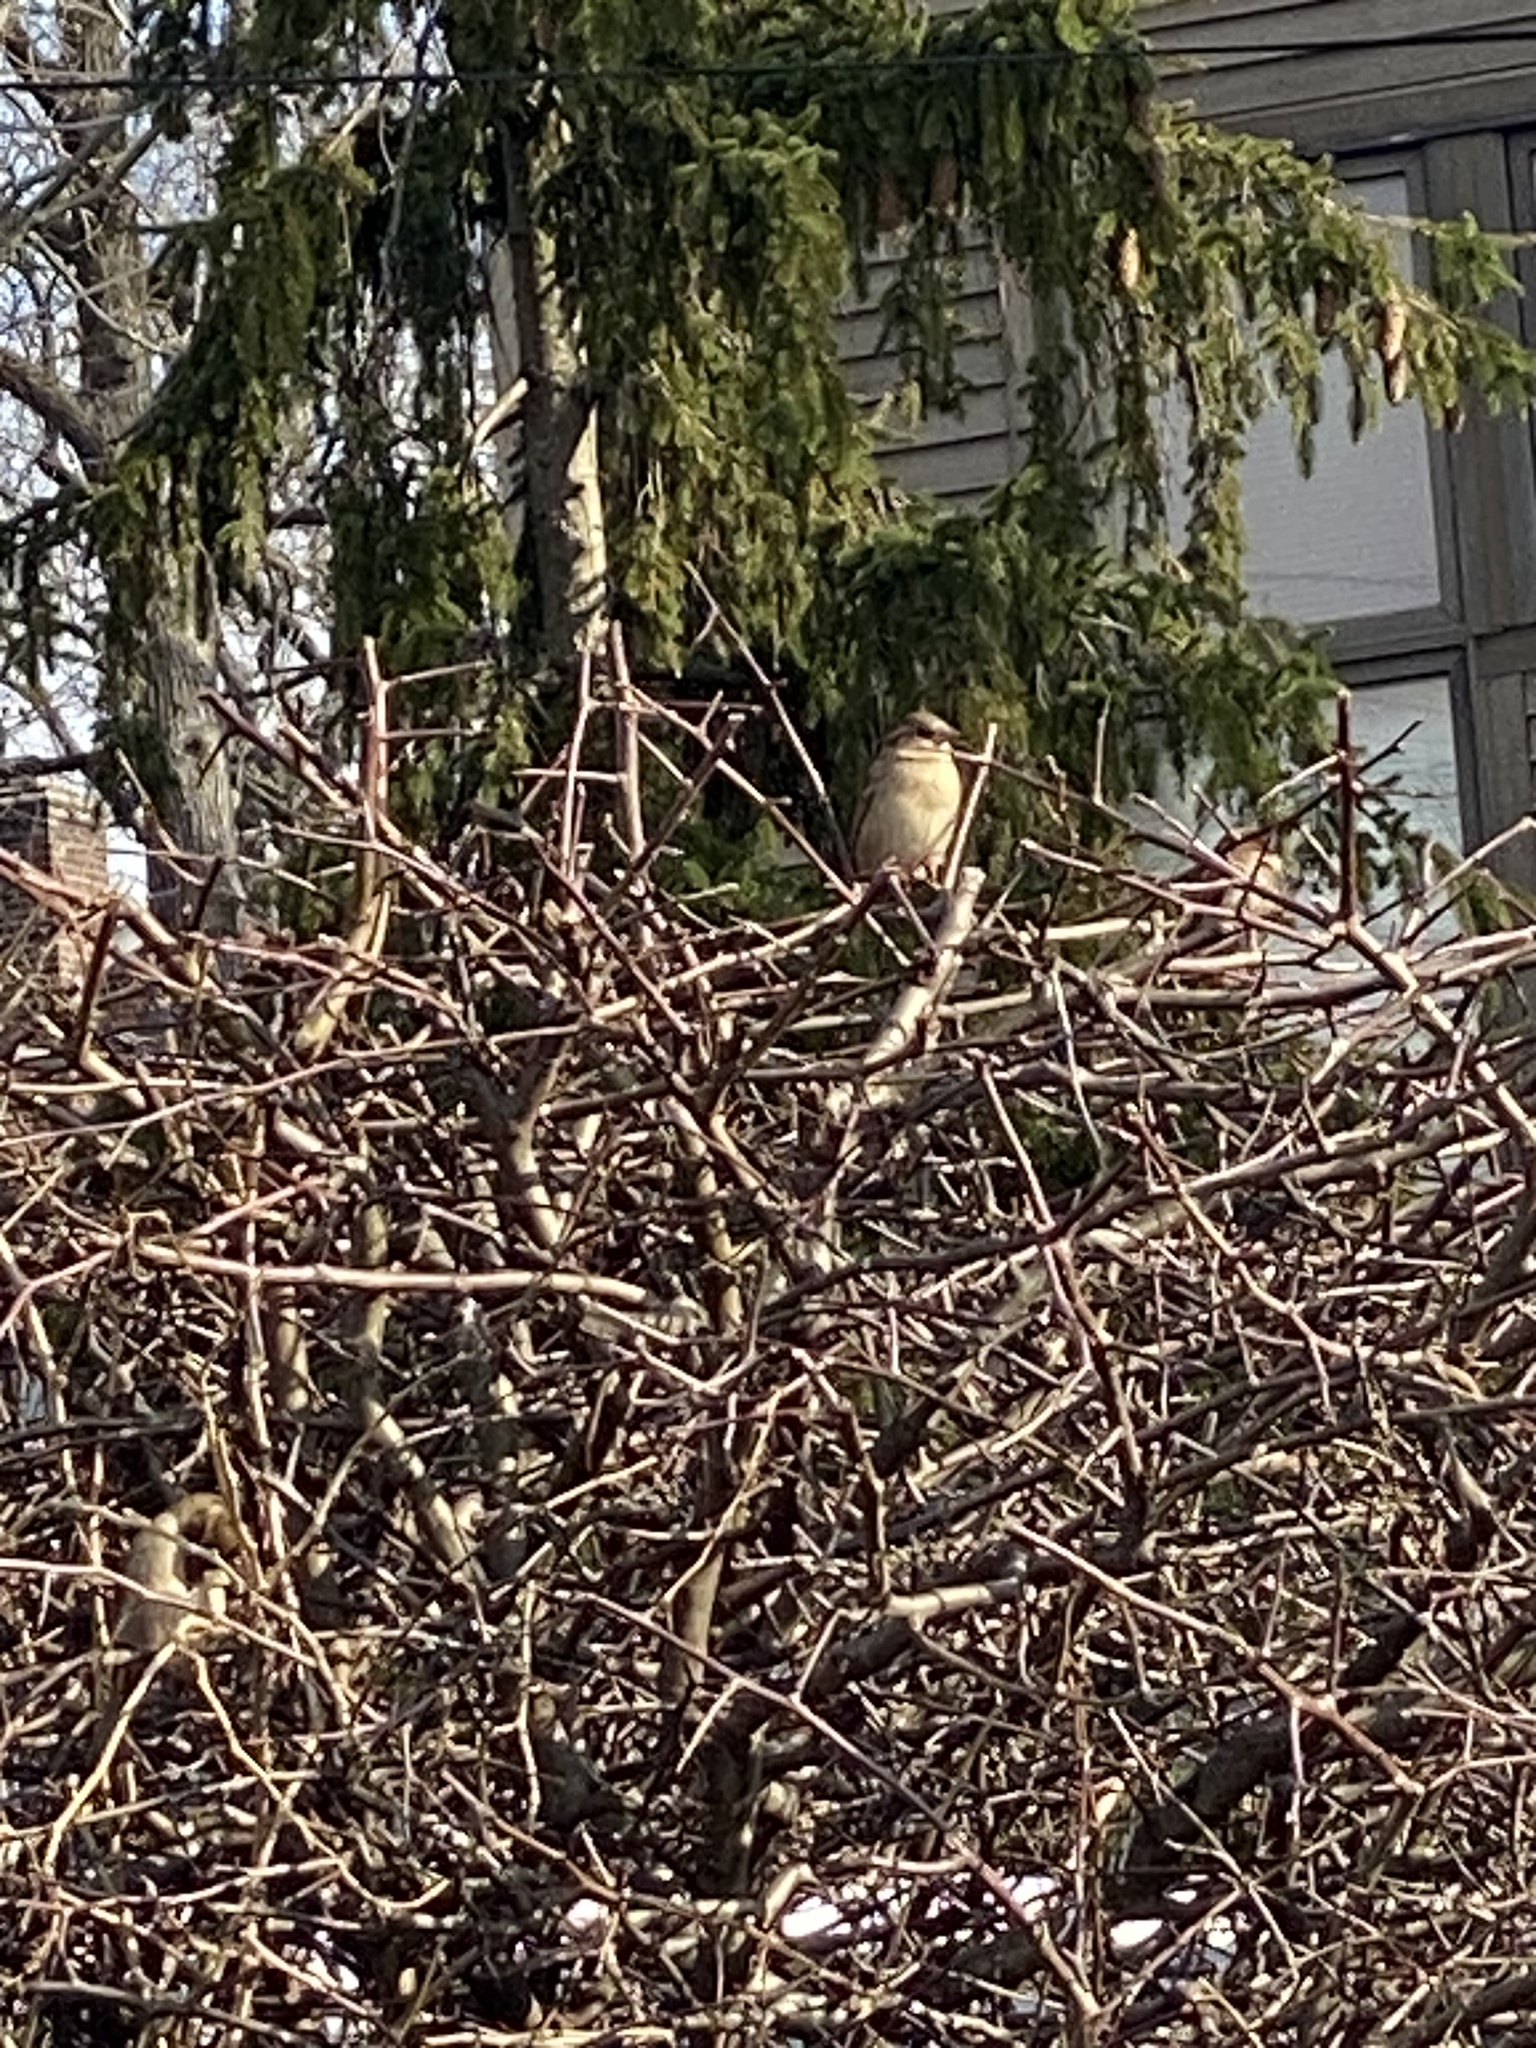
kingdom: Animalia
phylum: Chordata
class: Aves
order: Passeriformes
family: Passeridae
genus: Passer
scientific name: Passer domesticus
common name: House sparrow
